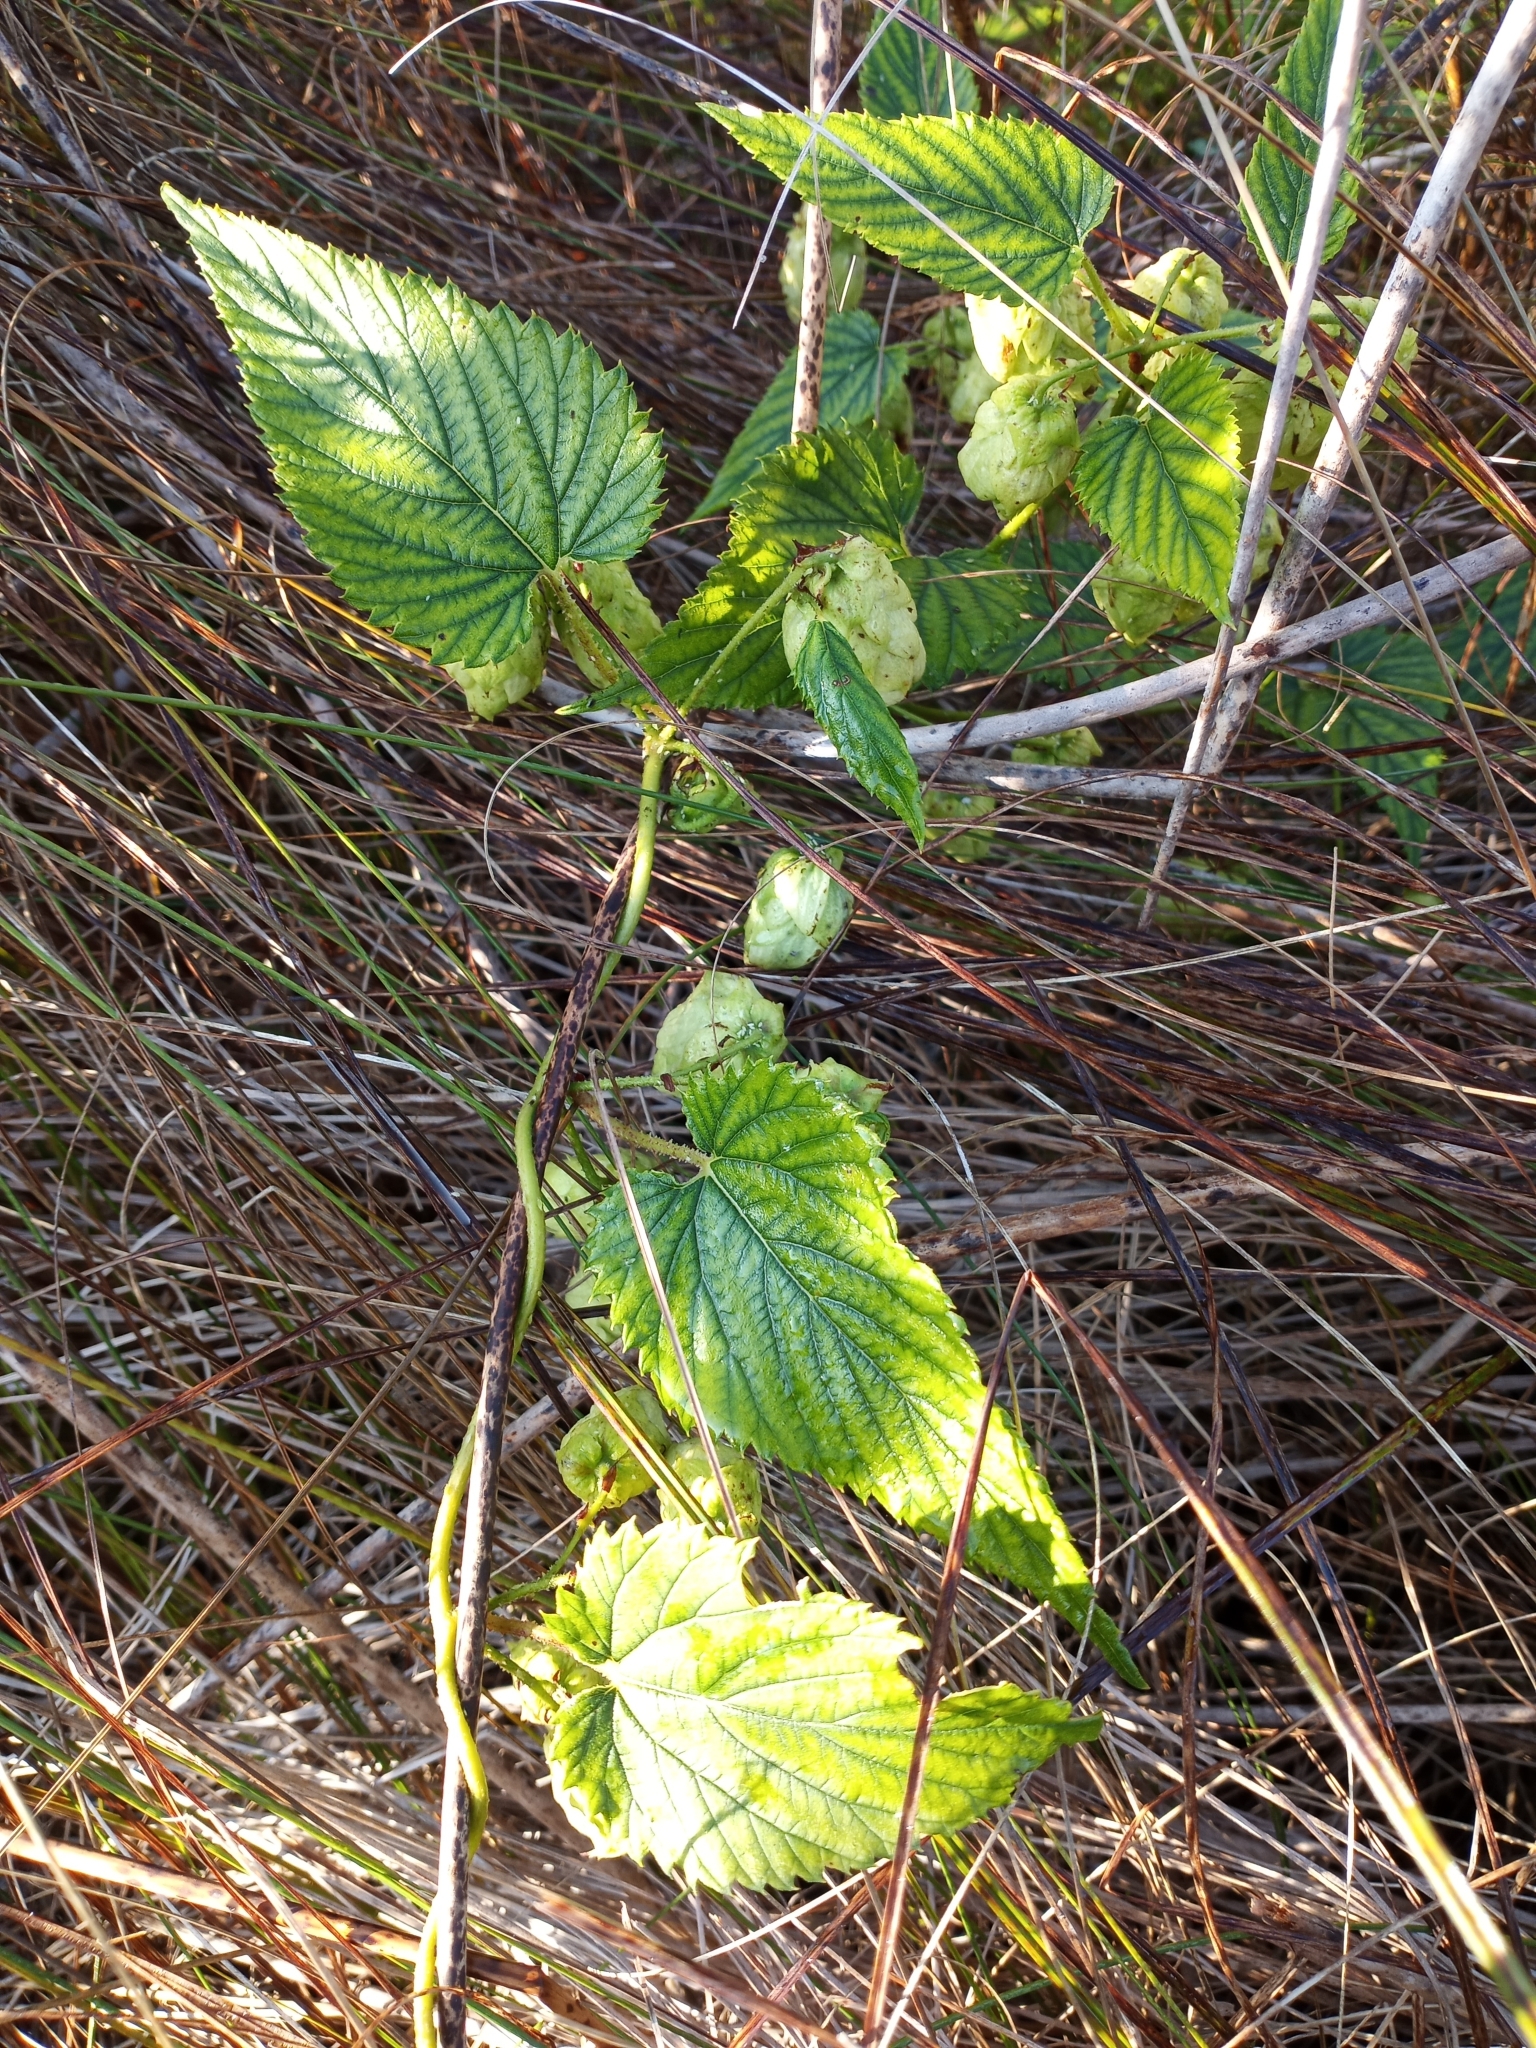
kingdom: Plantae
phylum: Tracheophyta
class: Magnoliopsida
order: Rosales
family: Cannabaceae
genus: Humulus
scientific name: Humulus lupulus
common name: Hop
